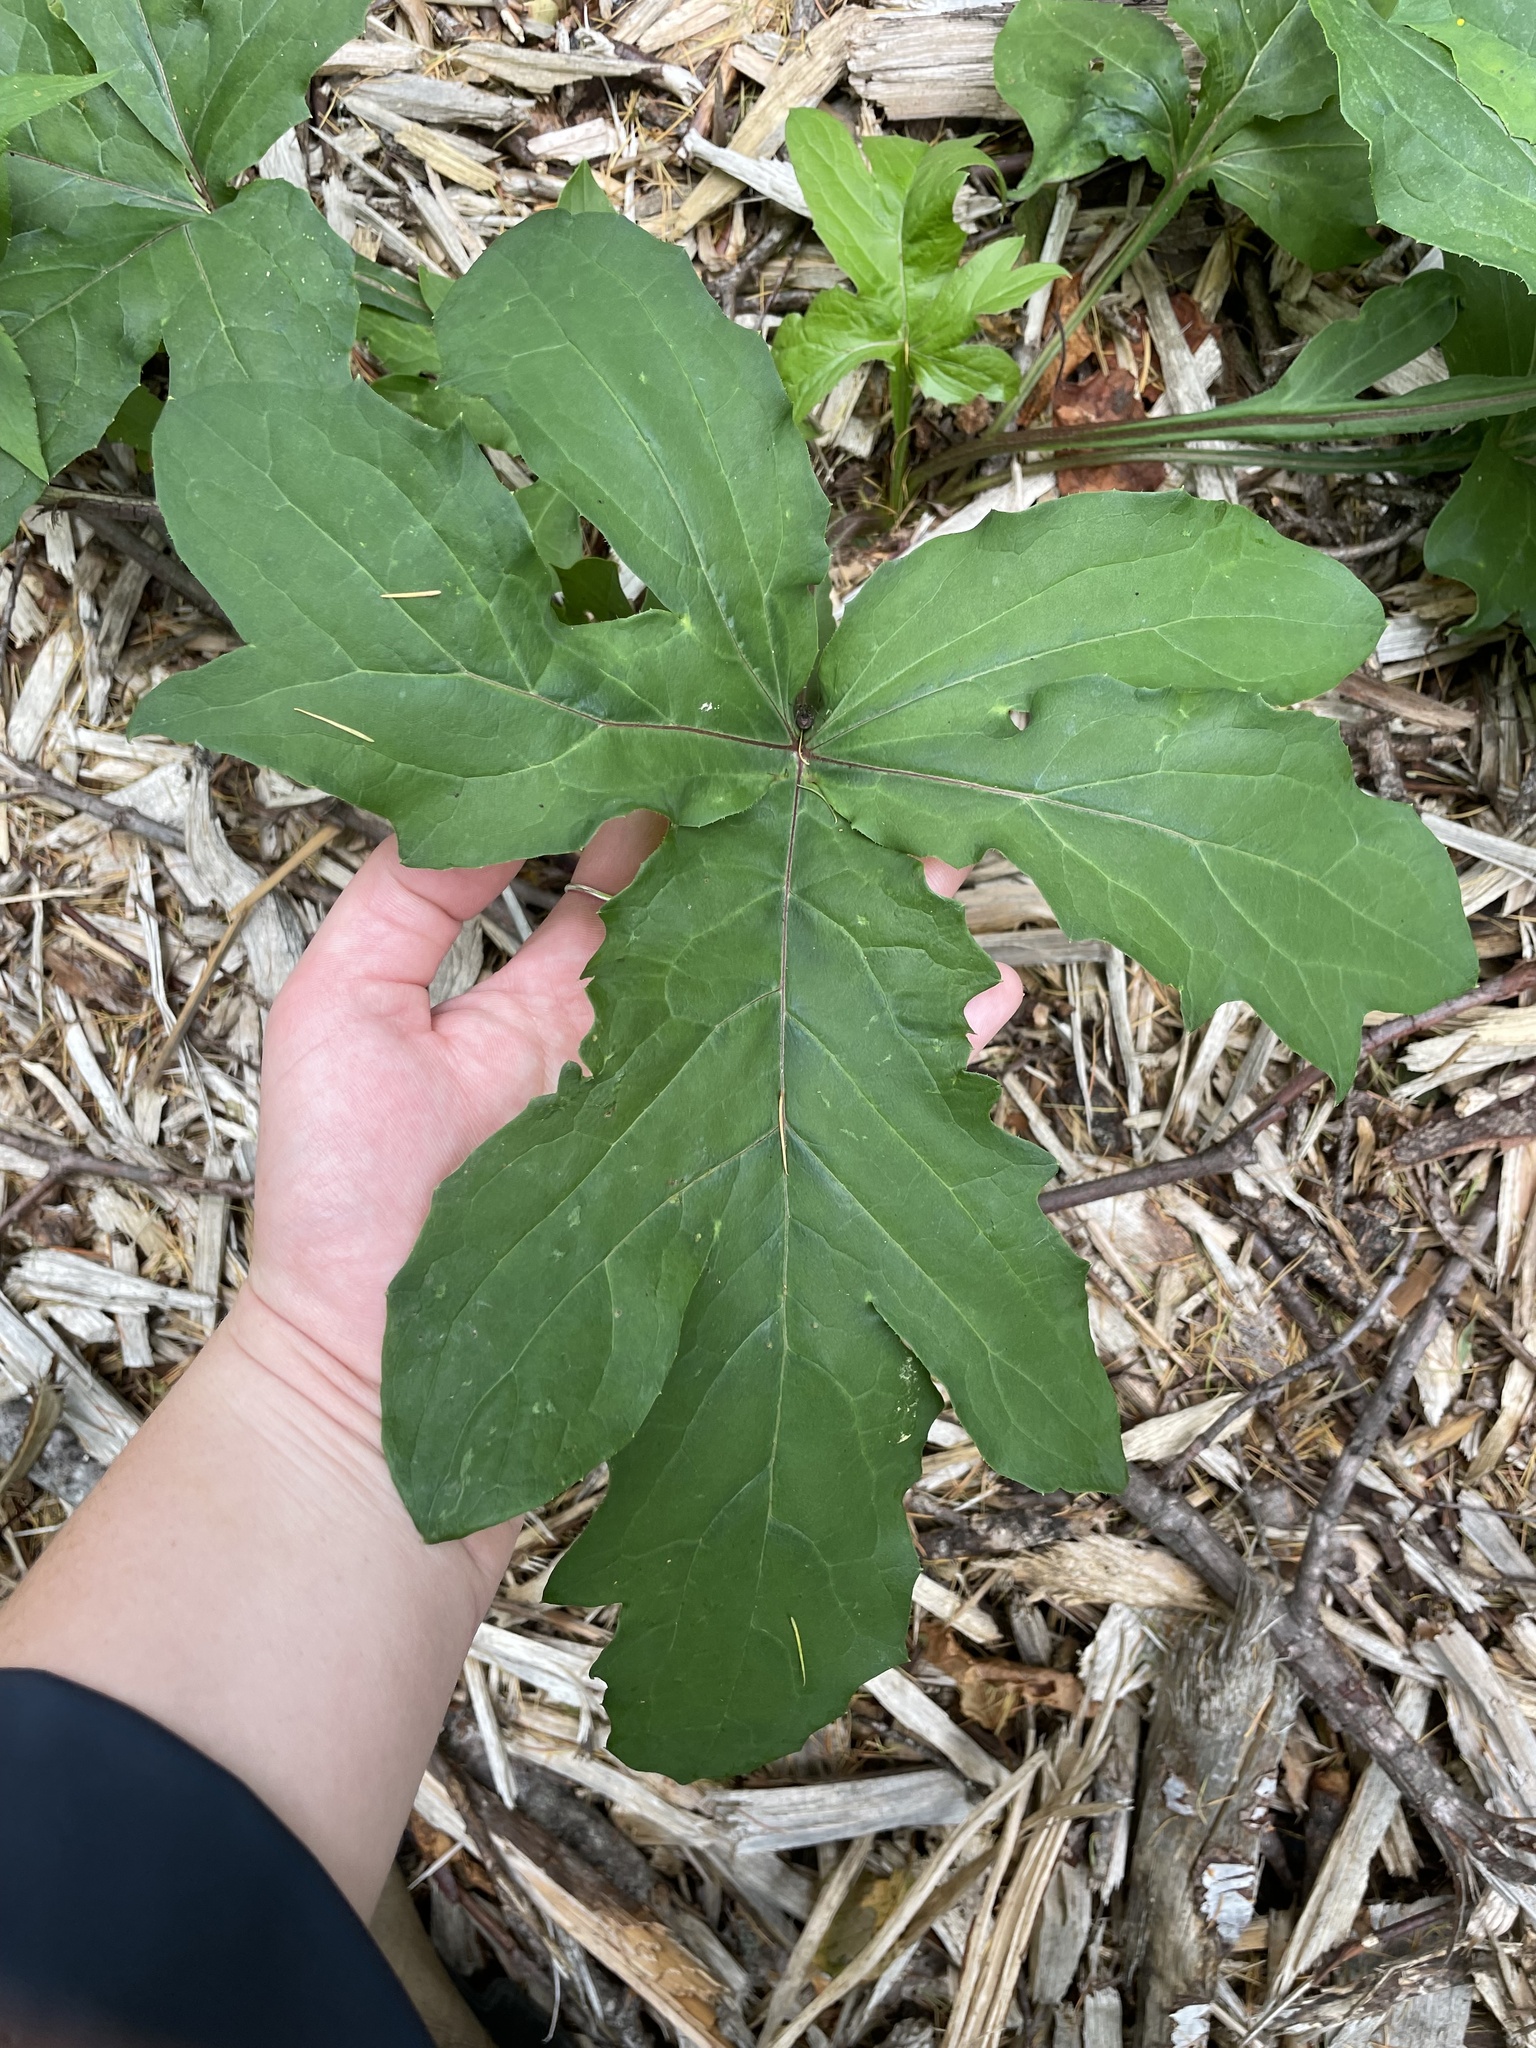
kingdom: Plantae
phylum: Tracheophyta
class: Magnoliopsida
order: Asterales
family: Asteraceae
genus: Nabalus
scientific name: Nabalus trifoliolatus
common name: Gall-of-the-earth
